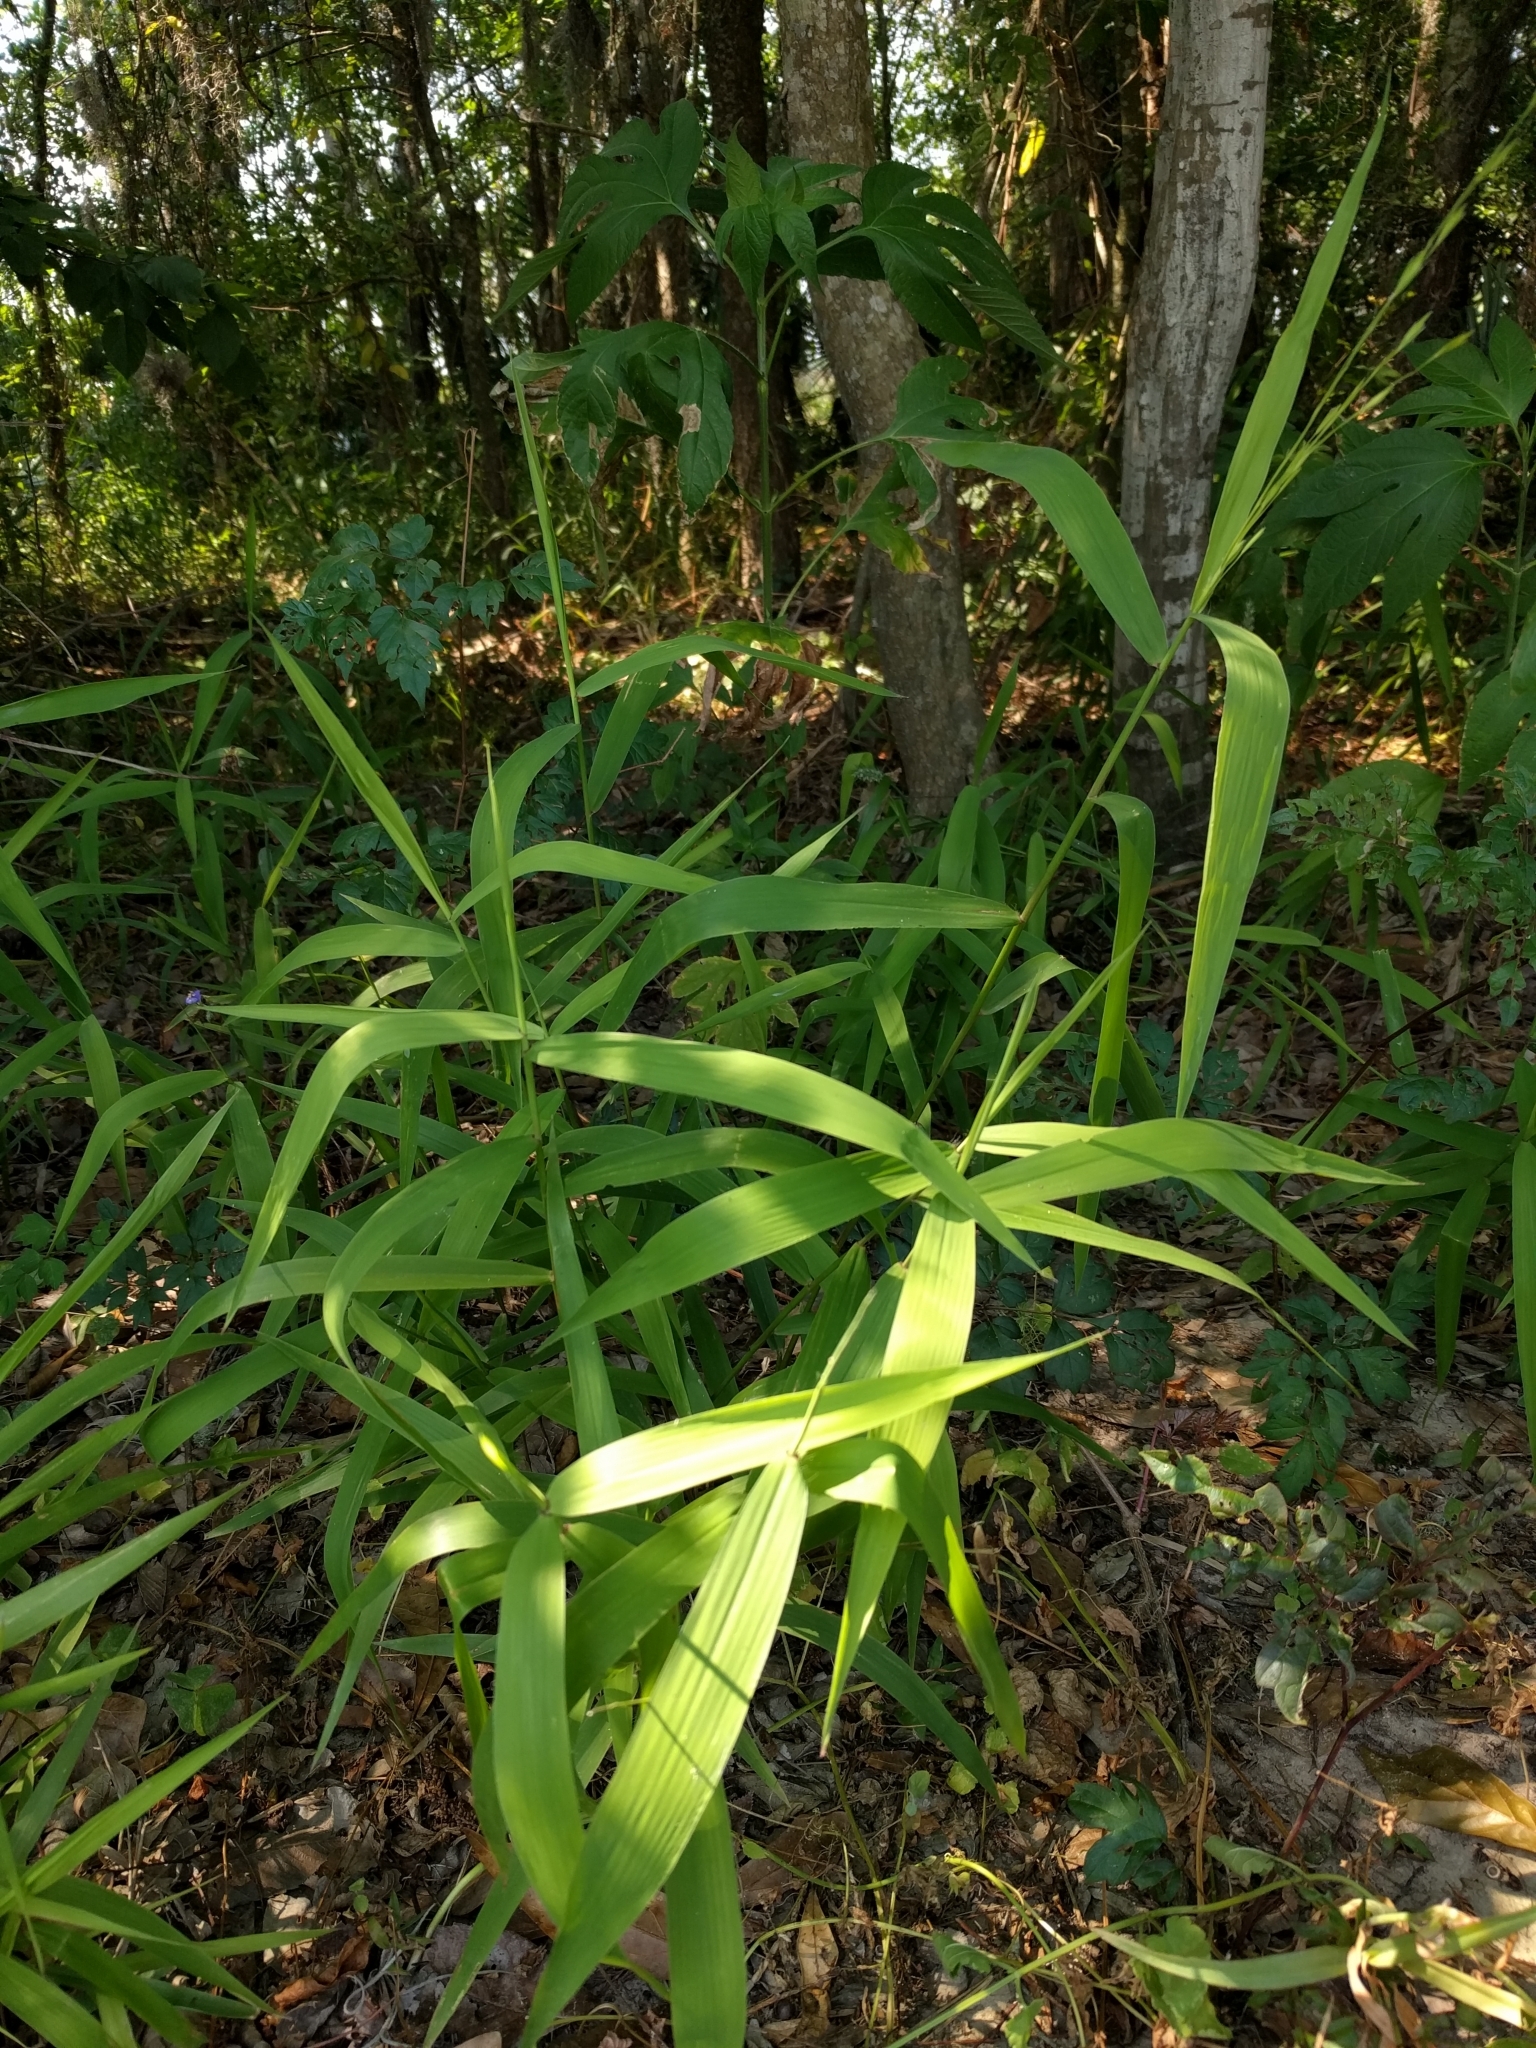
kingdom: Plantae
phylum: Tracheophyta
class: Liliopsida
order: Poales
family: Poaceae
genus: Chasmanthium
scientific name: Chasmanthium latifolium
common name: Broad-leaved chasmanthium
